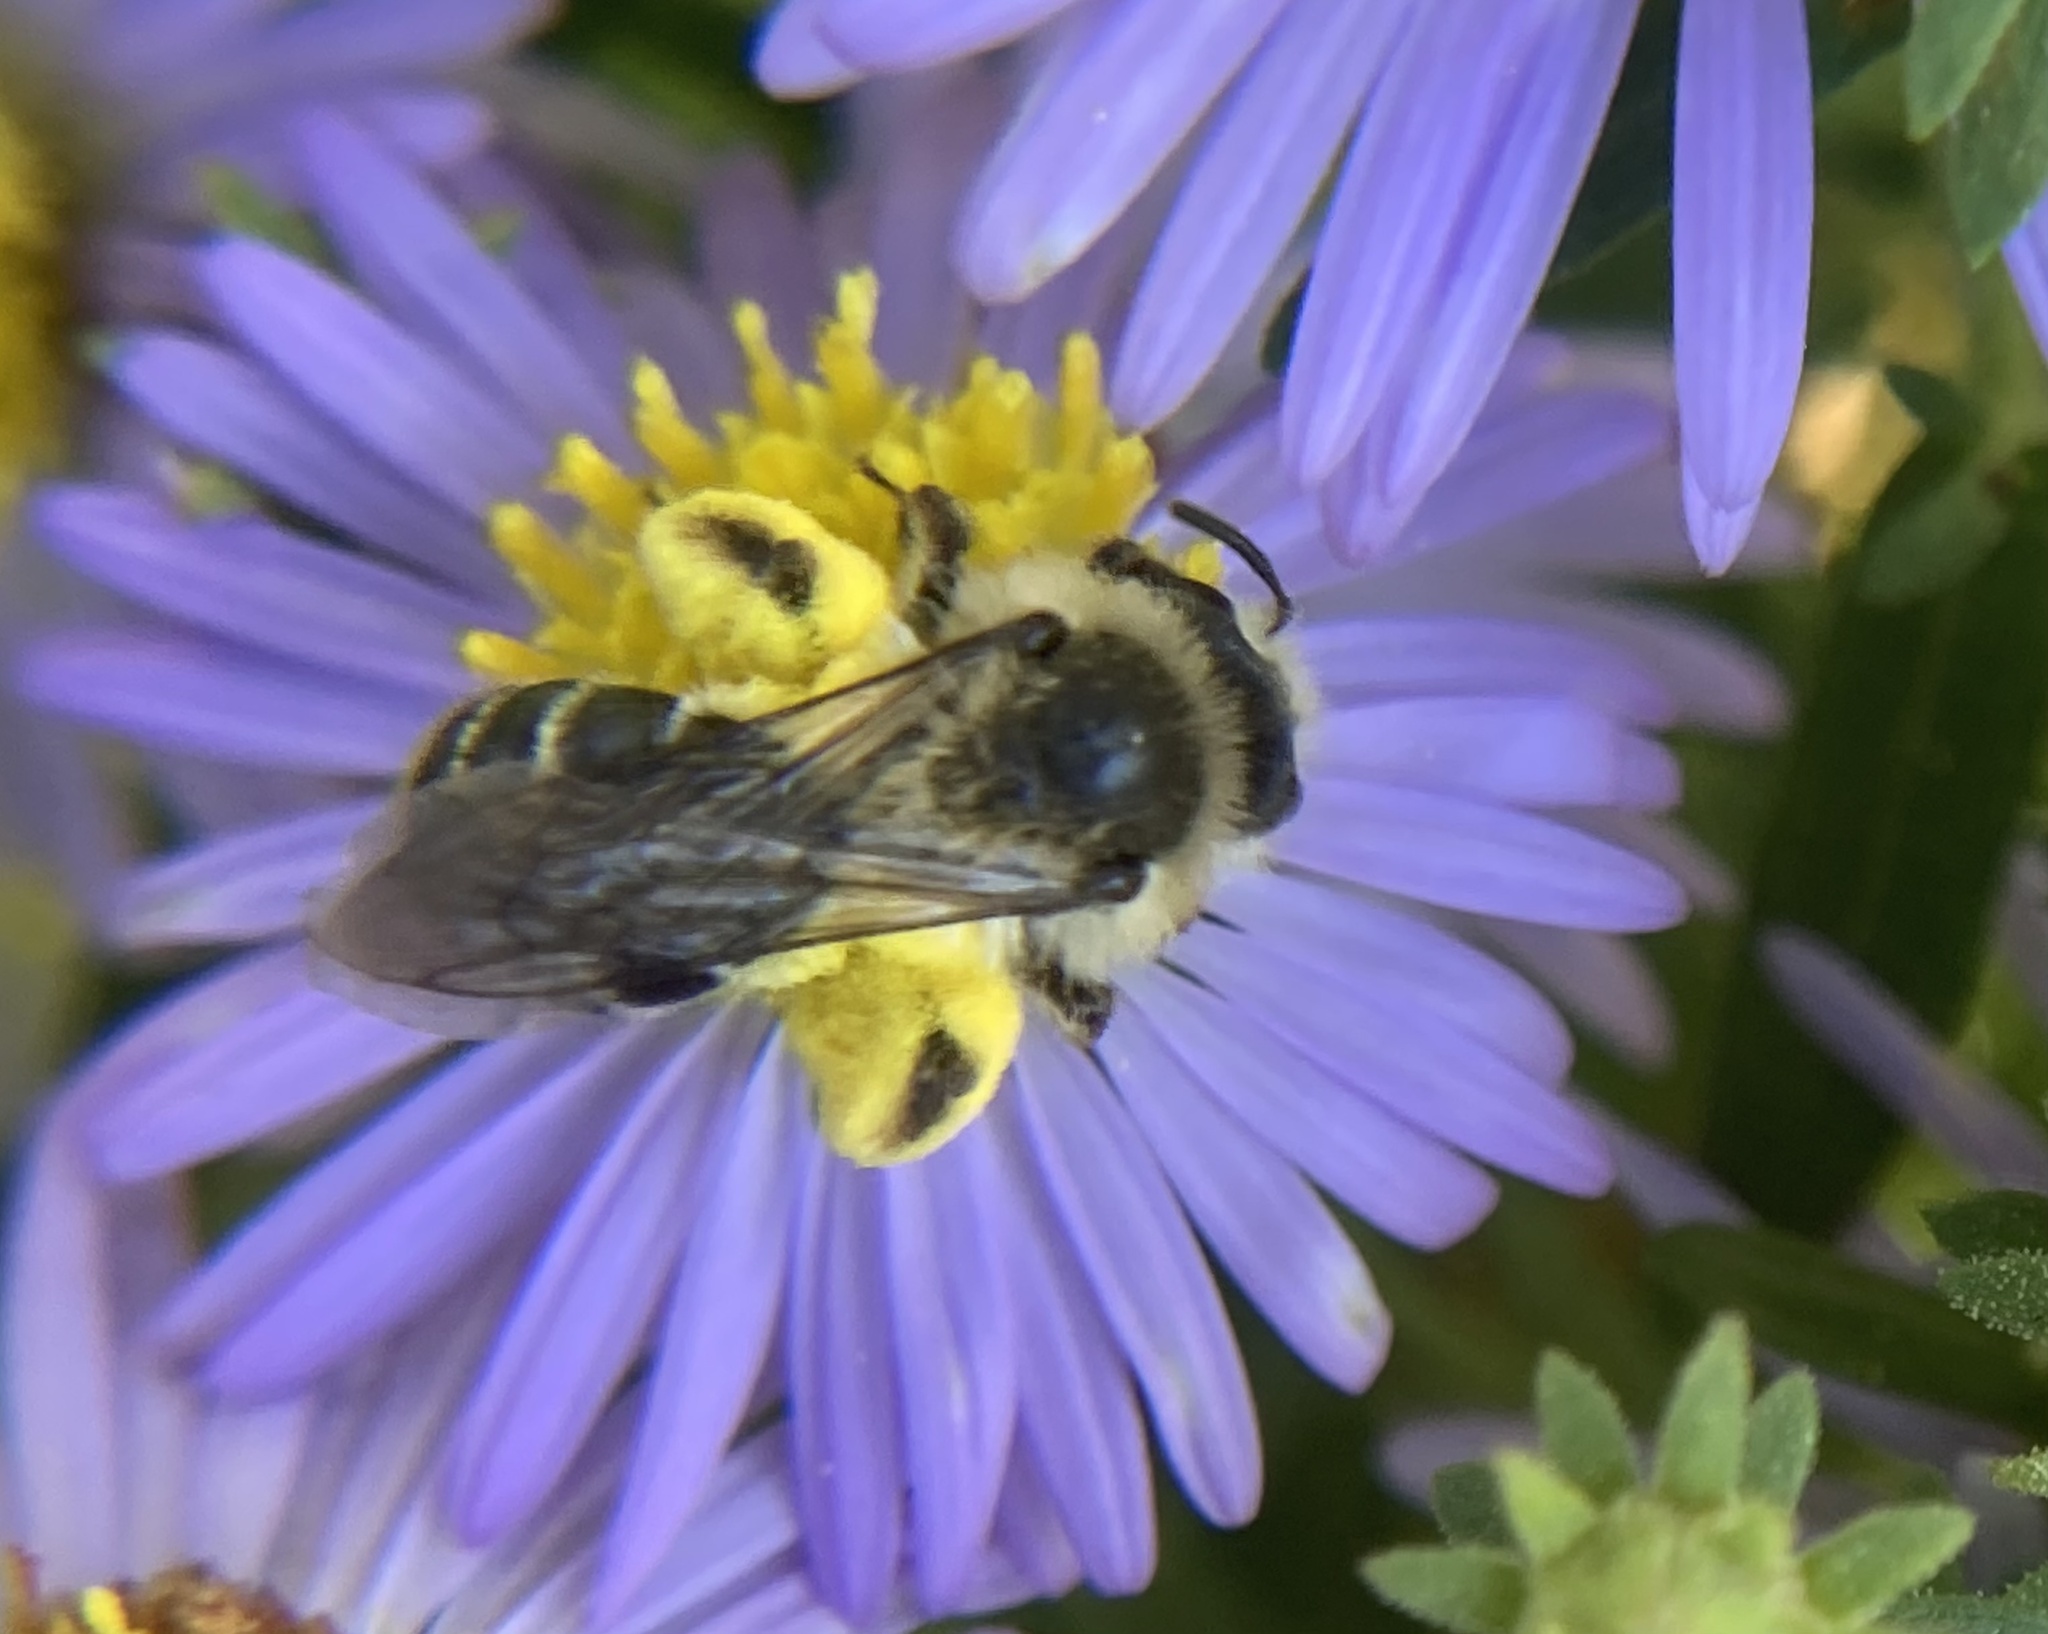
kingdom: Animalia
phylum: Arthropoda
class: Insecta
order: Hymenoptera
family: Andrenidae
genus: Andrena
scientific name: Andrena asteris
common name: Aster mining bee
